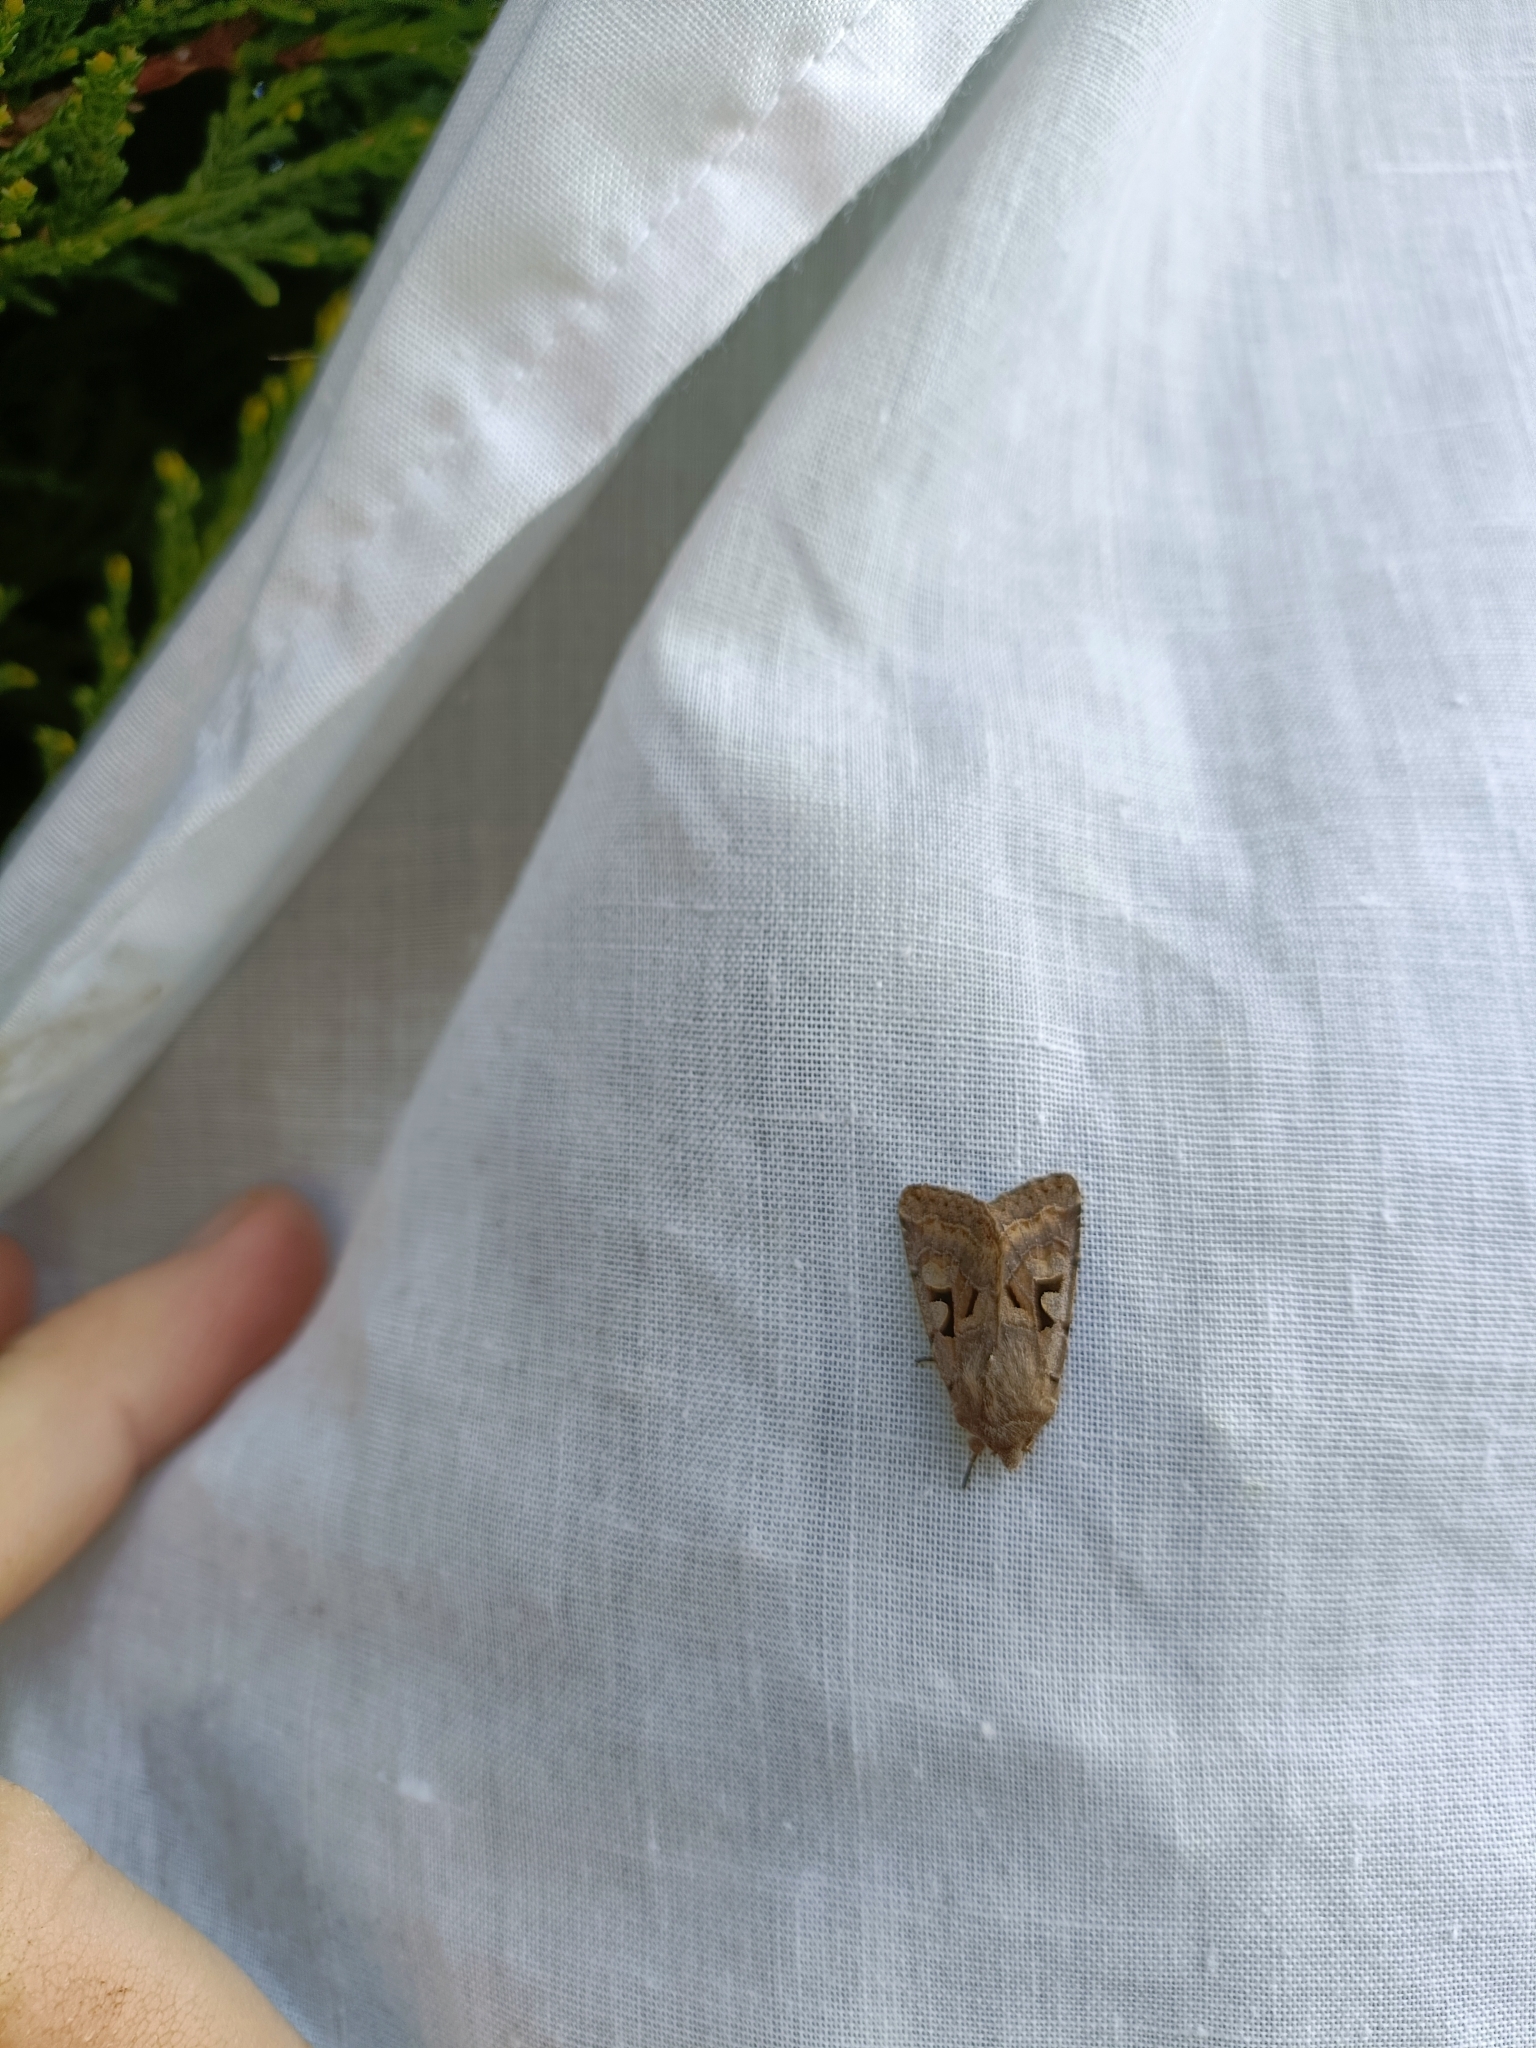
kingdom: Animalia
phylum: Arthropoda
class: Insecta
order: Lepidoptera
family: Noctuidae
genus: Orthosia
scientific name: Orthosia gothica
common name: Hebrew character
